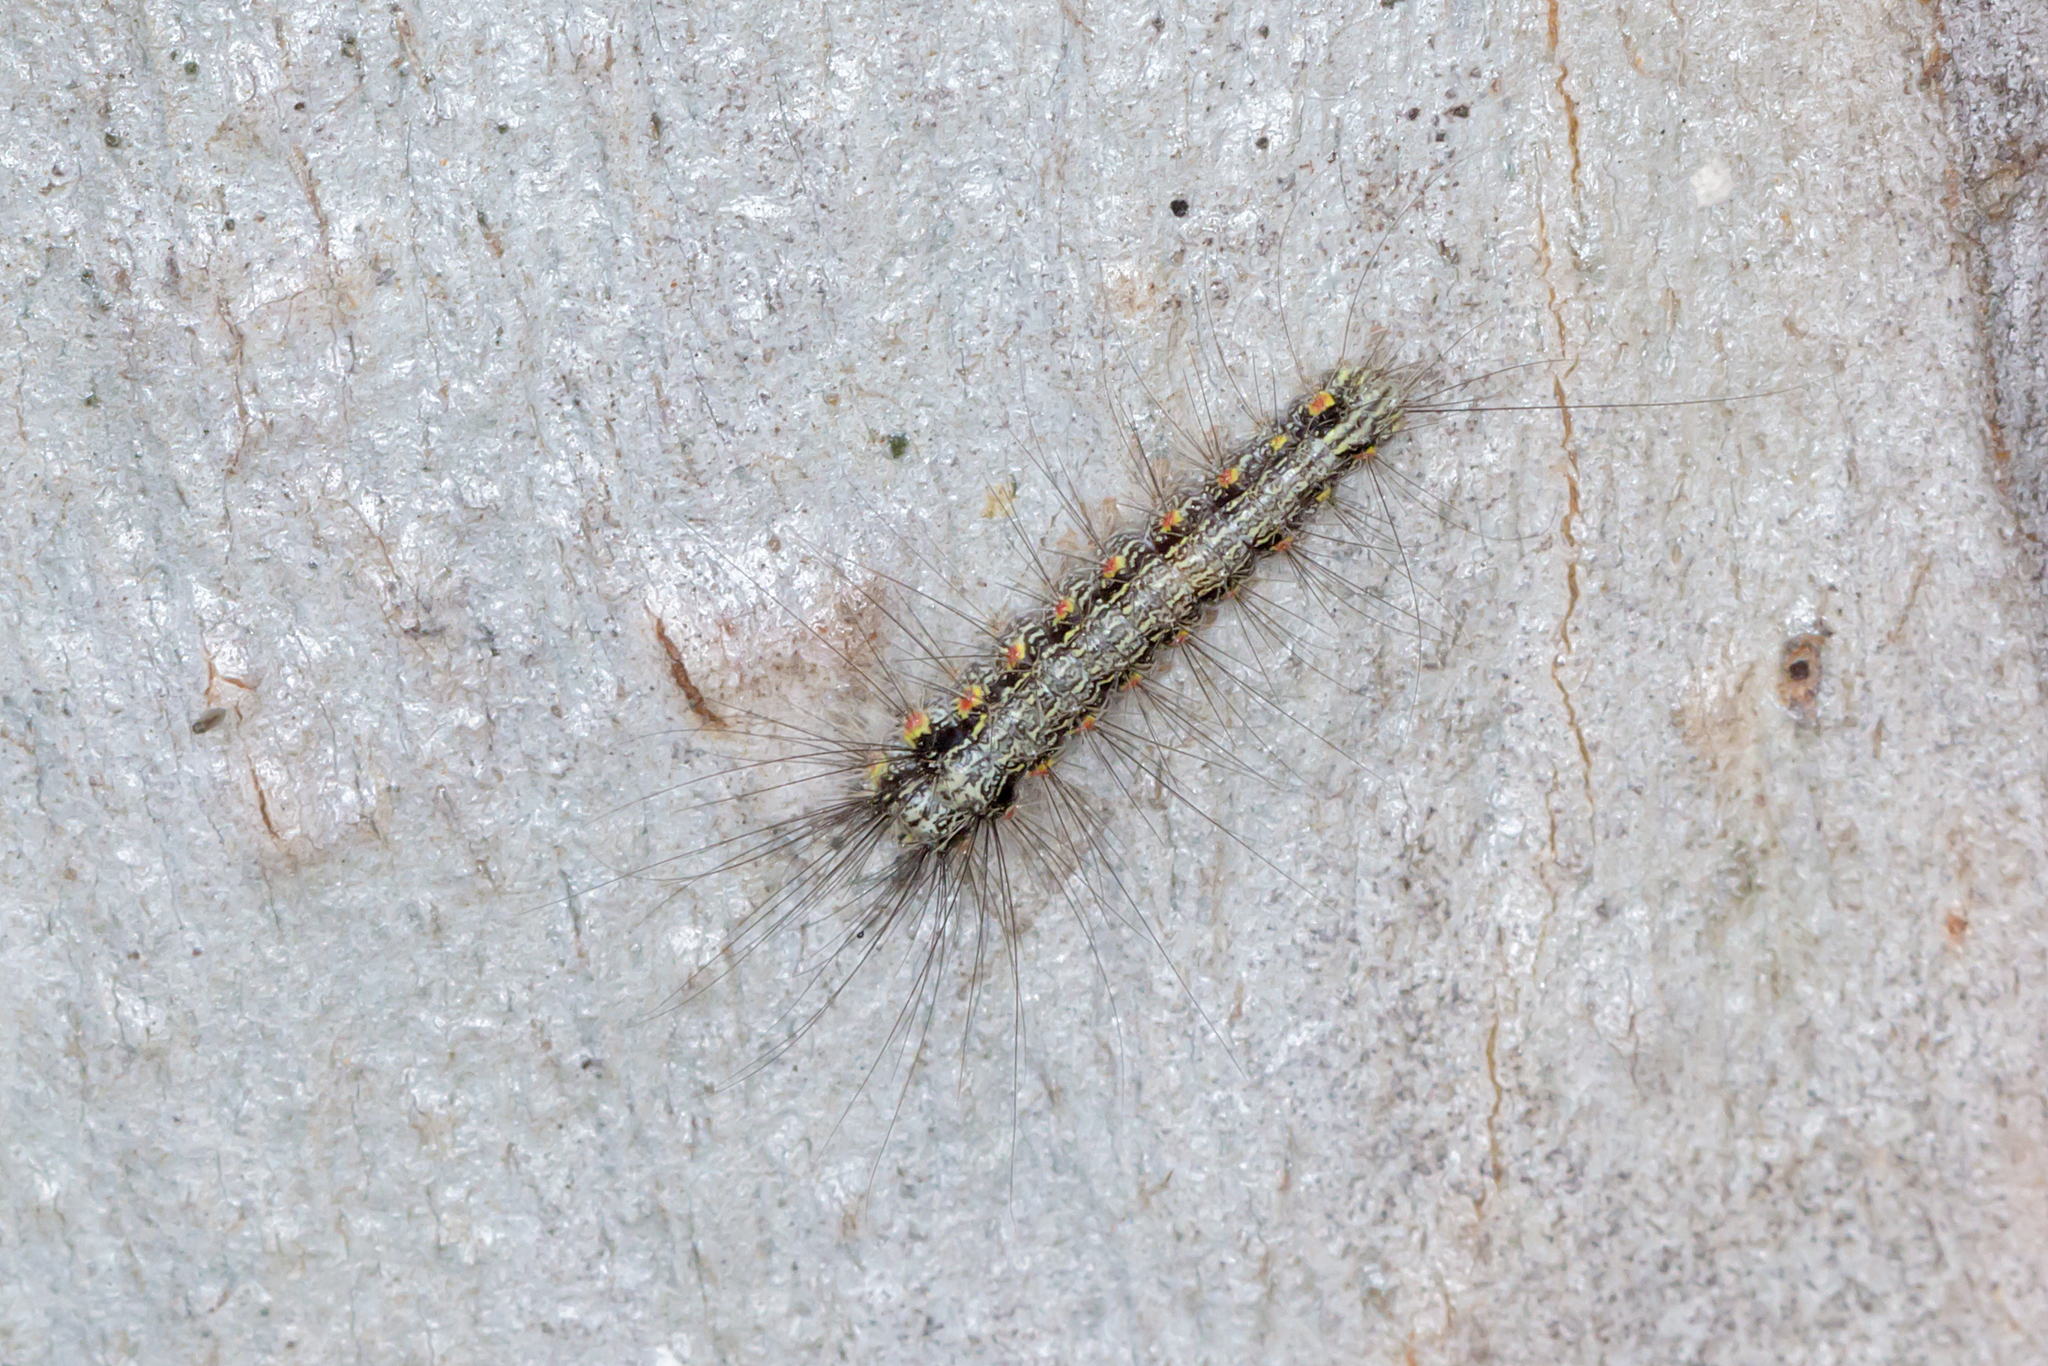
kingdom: Animalia
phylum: Arthropoda
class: Insecta
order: Lepidoptera
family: Erebidae
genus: Anestia
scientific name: Anestia
